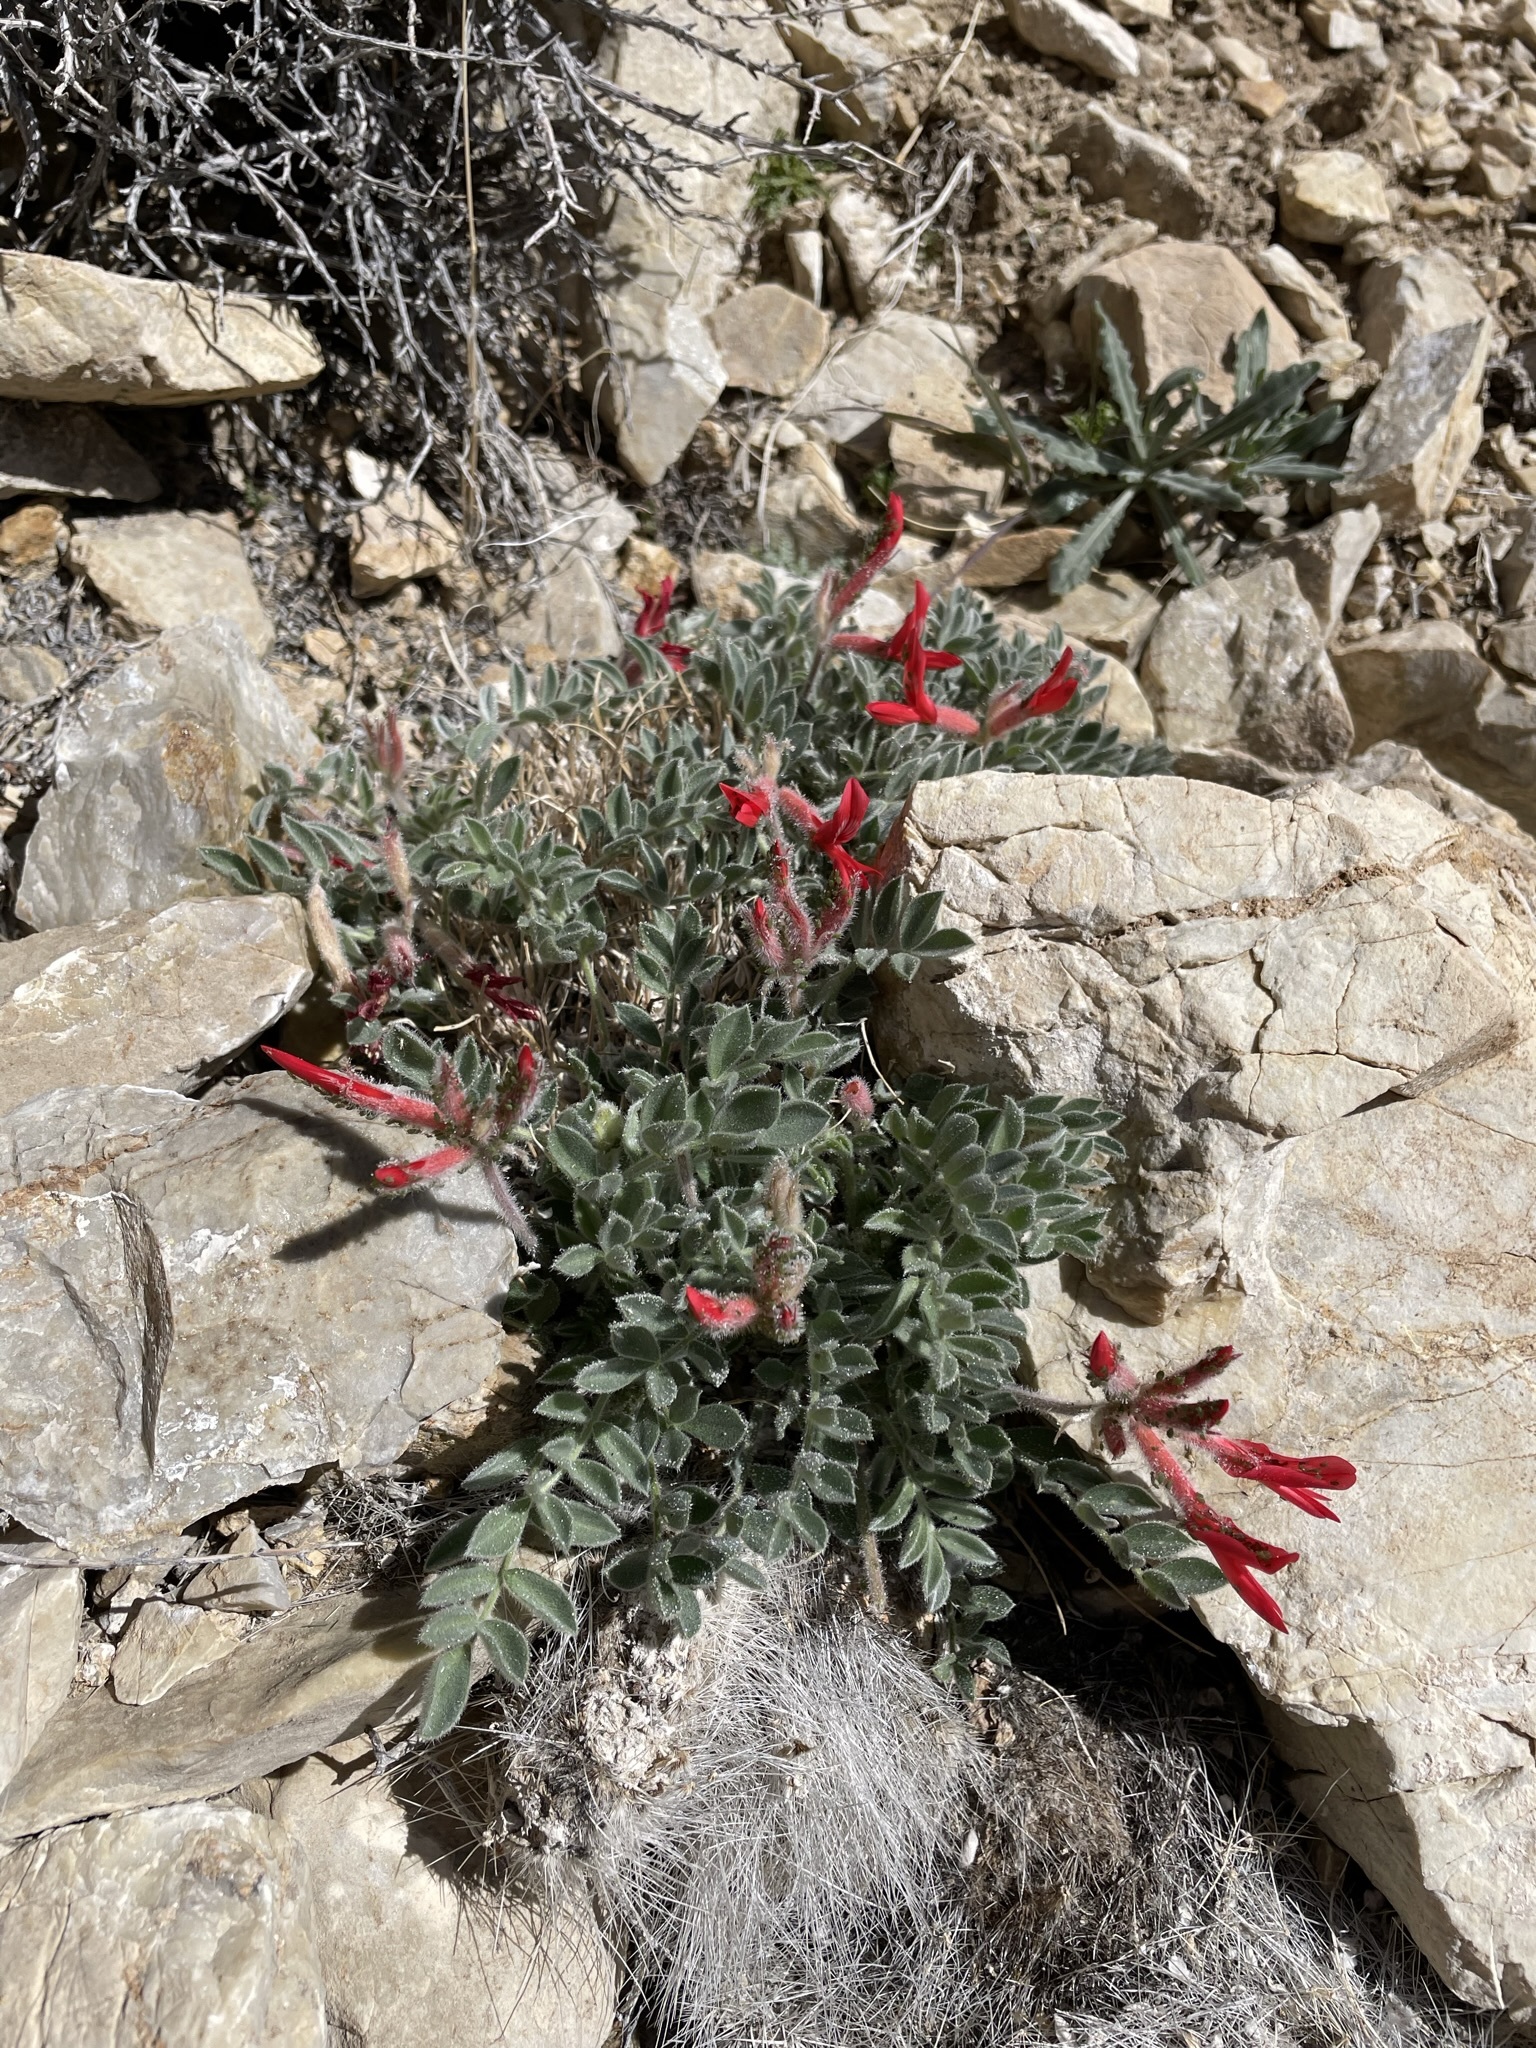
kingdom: Plantae
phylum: Tracheophyta
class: Magnoliopsida
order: Fabales
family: Fabaceae
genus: Astragalus
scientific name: Astragalus coccineus
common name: Scarlet milk-vetch
